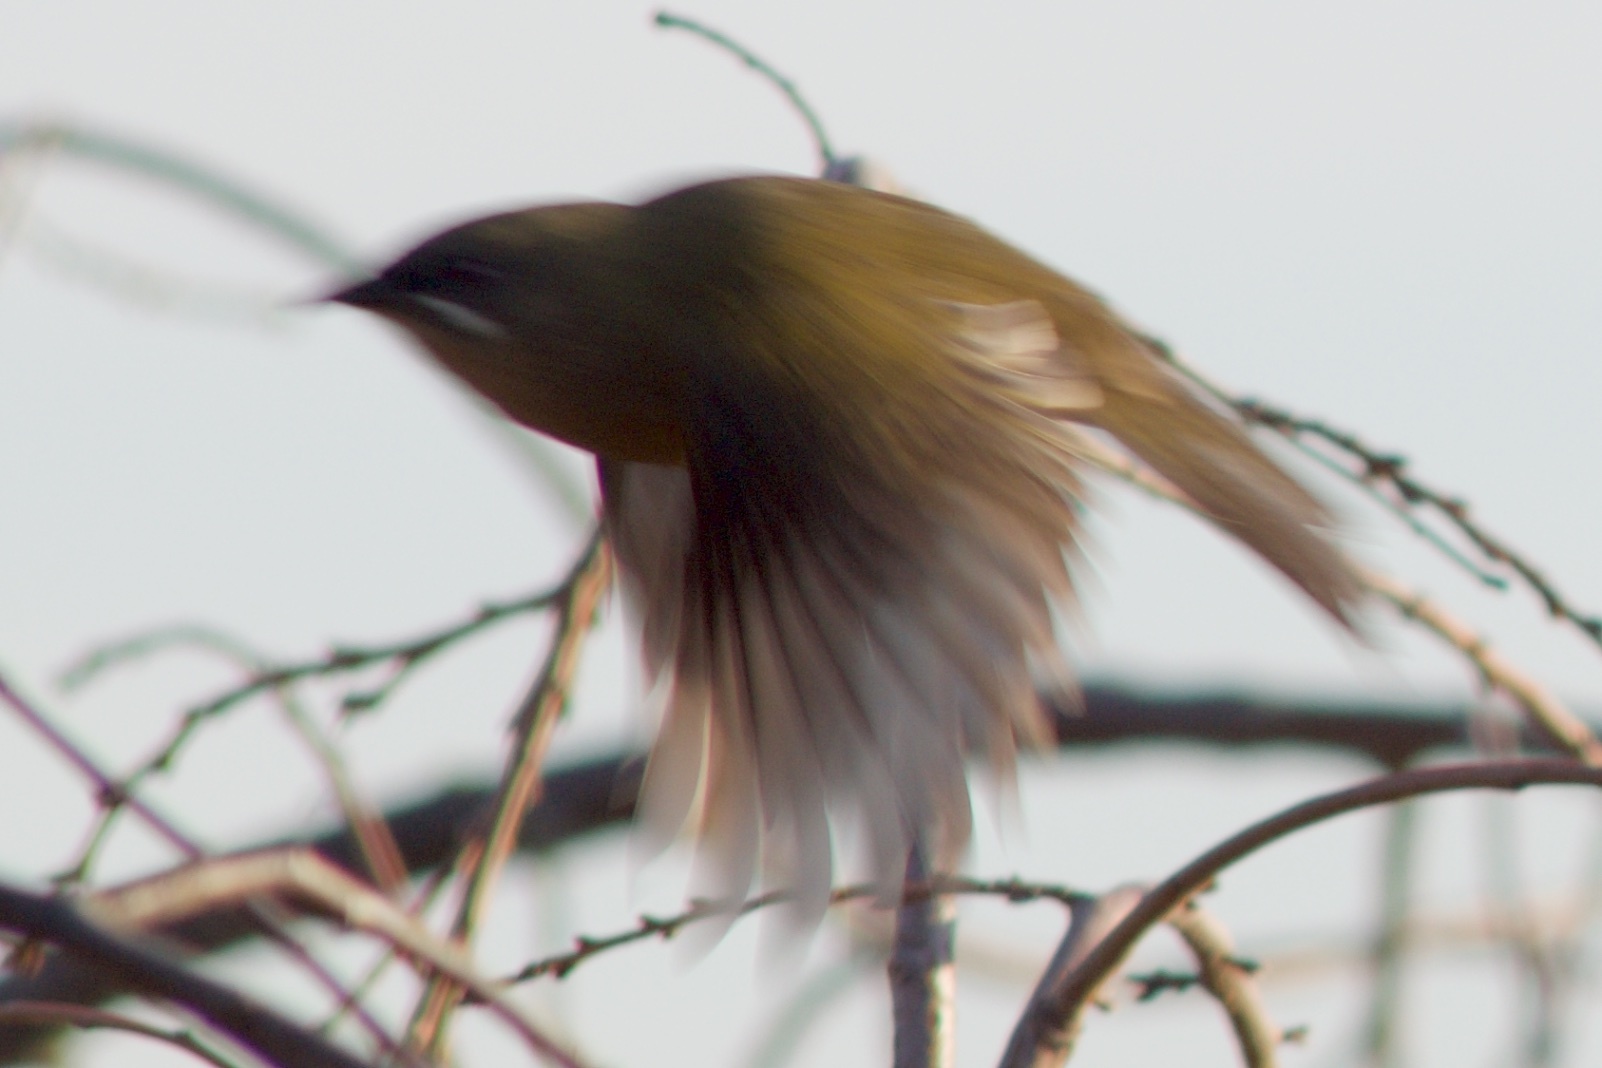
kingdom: Animalia
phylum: Chordata
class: Aves
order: Passeriformes
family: Meliphagidae
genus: Anthornis
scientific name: Anthornis melanura
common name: New zealand bellbird
